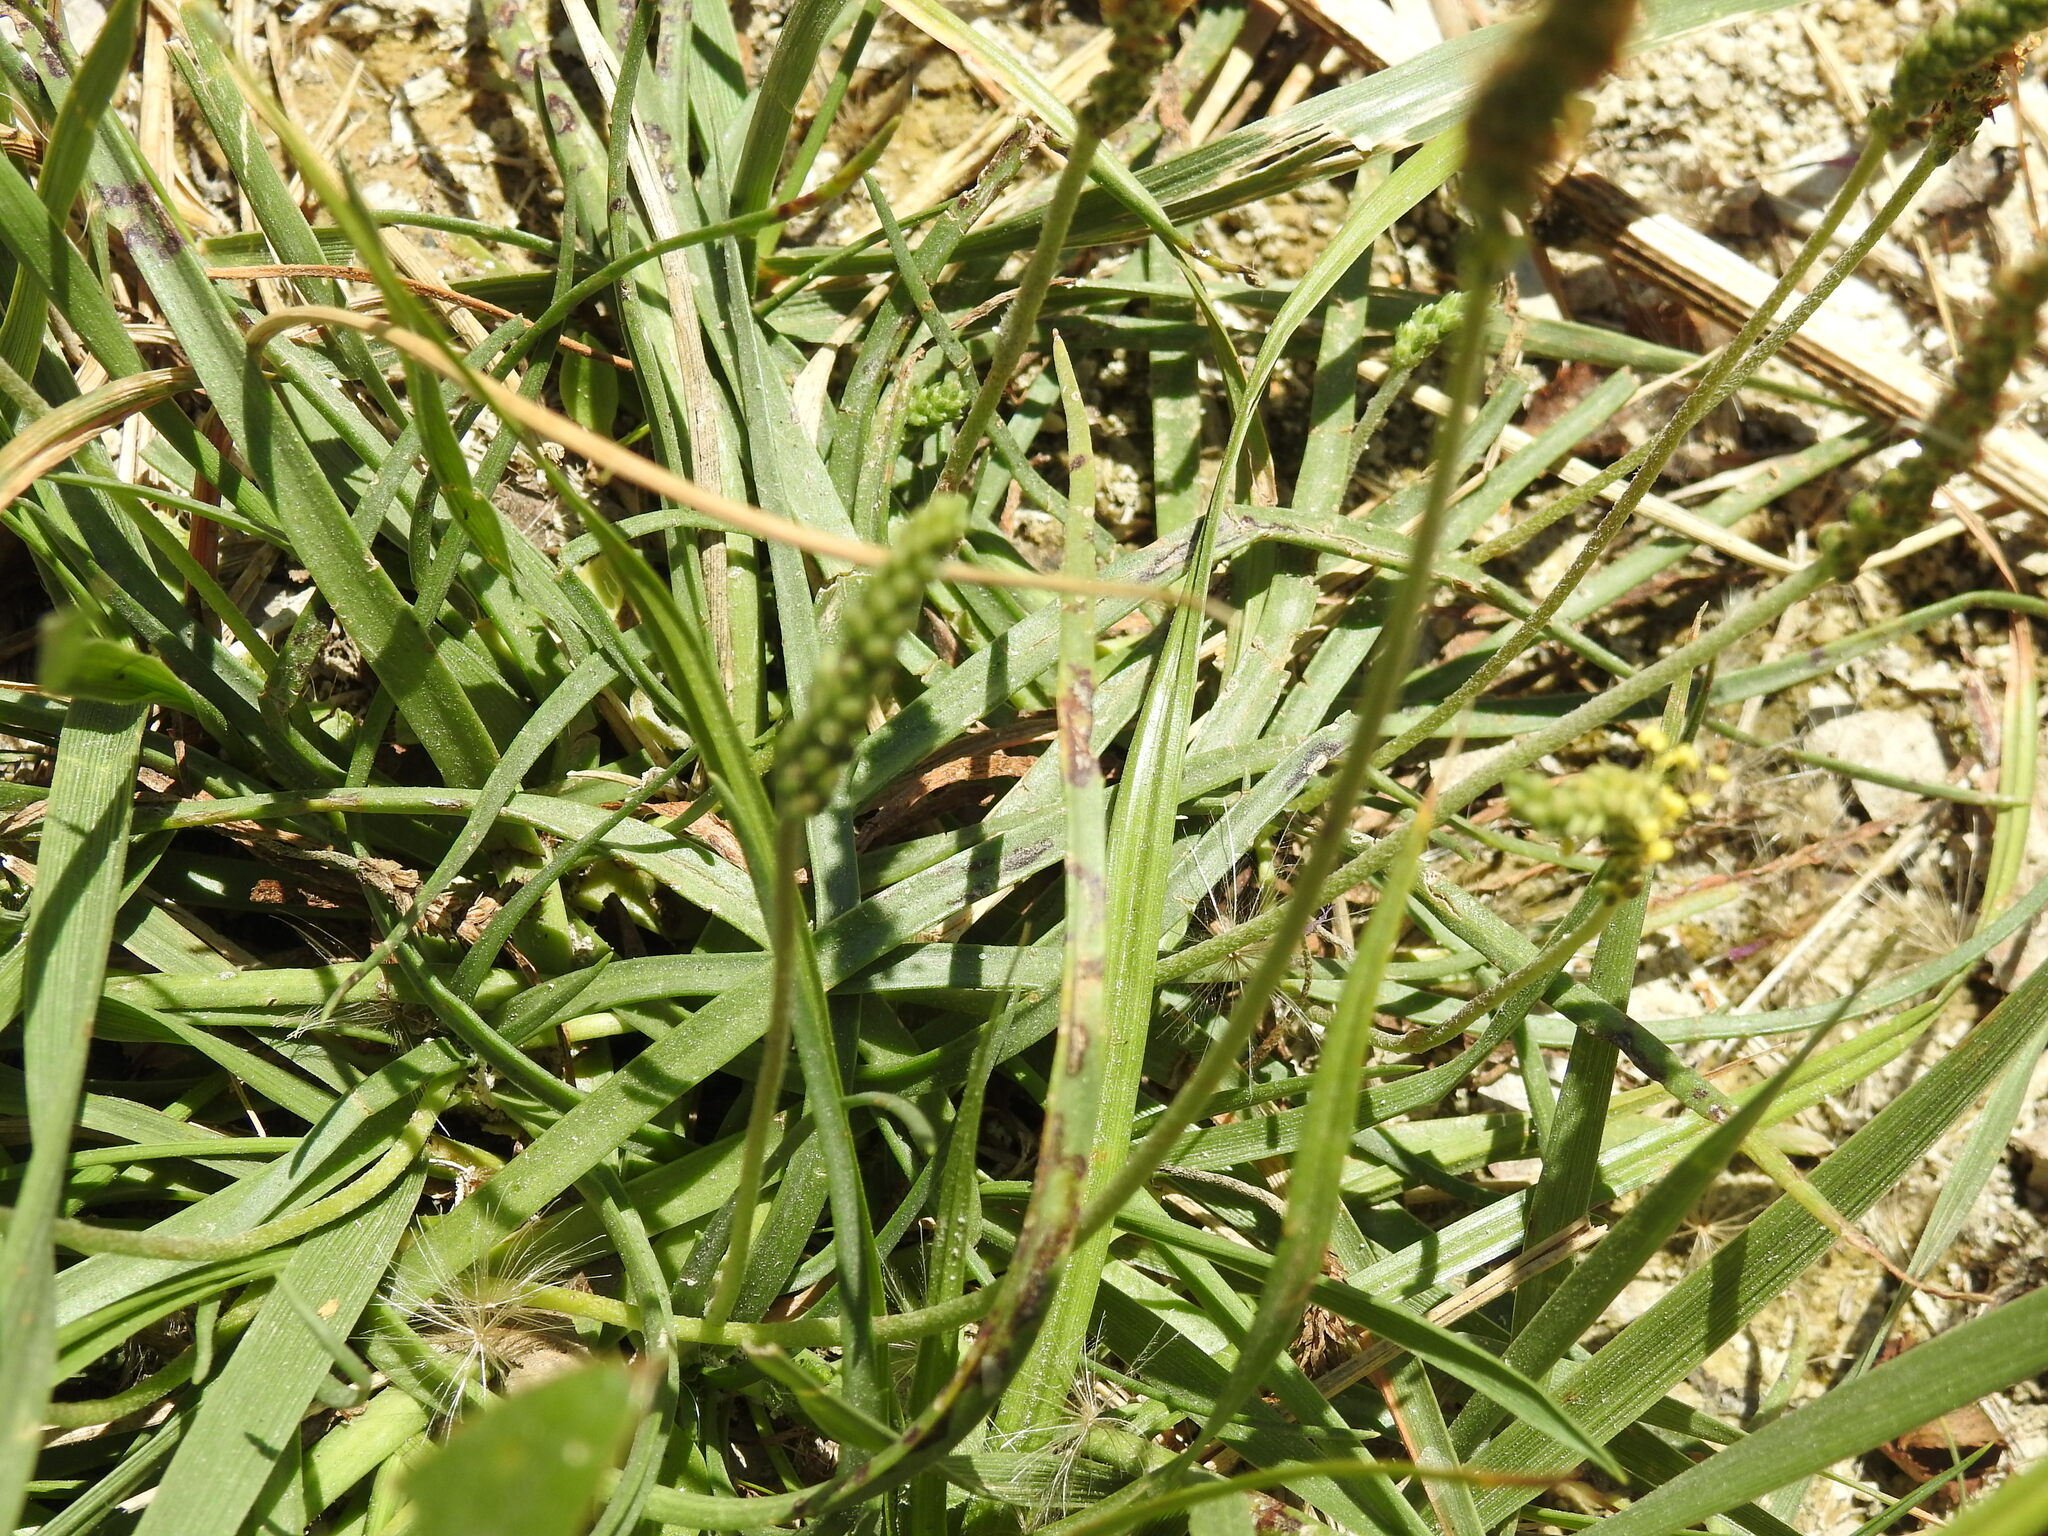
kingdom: Plantae
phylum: Tracheophyta
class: Magnoliopsida
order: Lamiales
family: Plantaginaceae
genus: Plantago
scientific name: Plantago maritima
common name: Sea plantain
